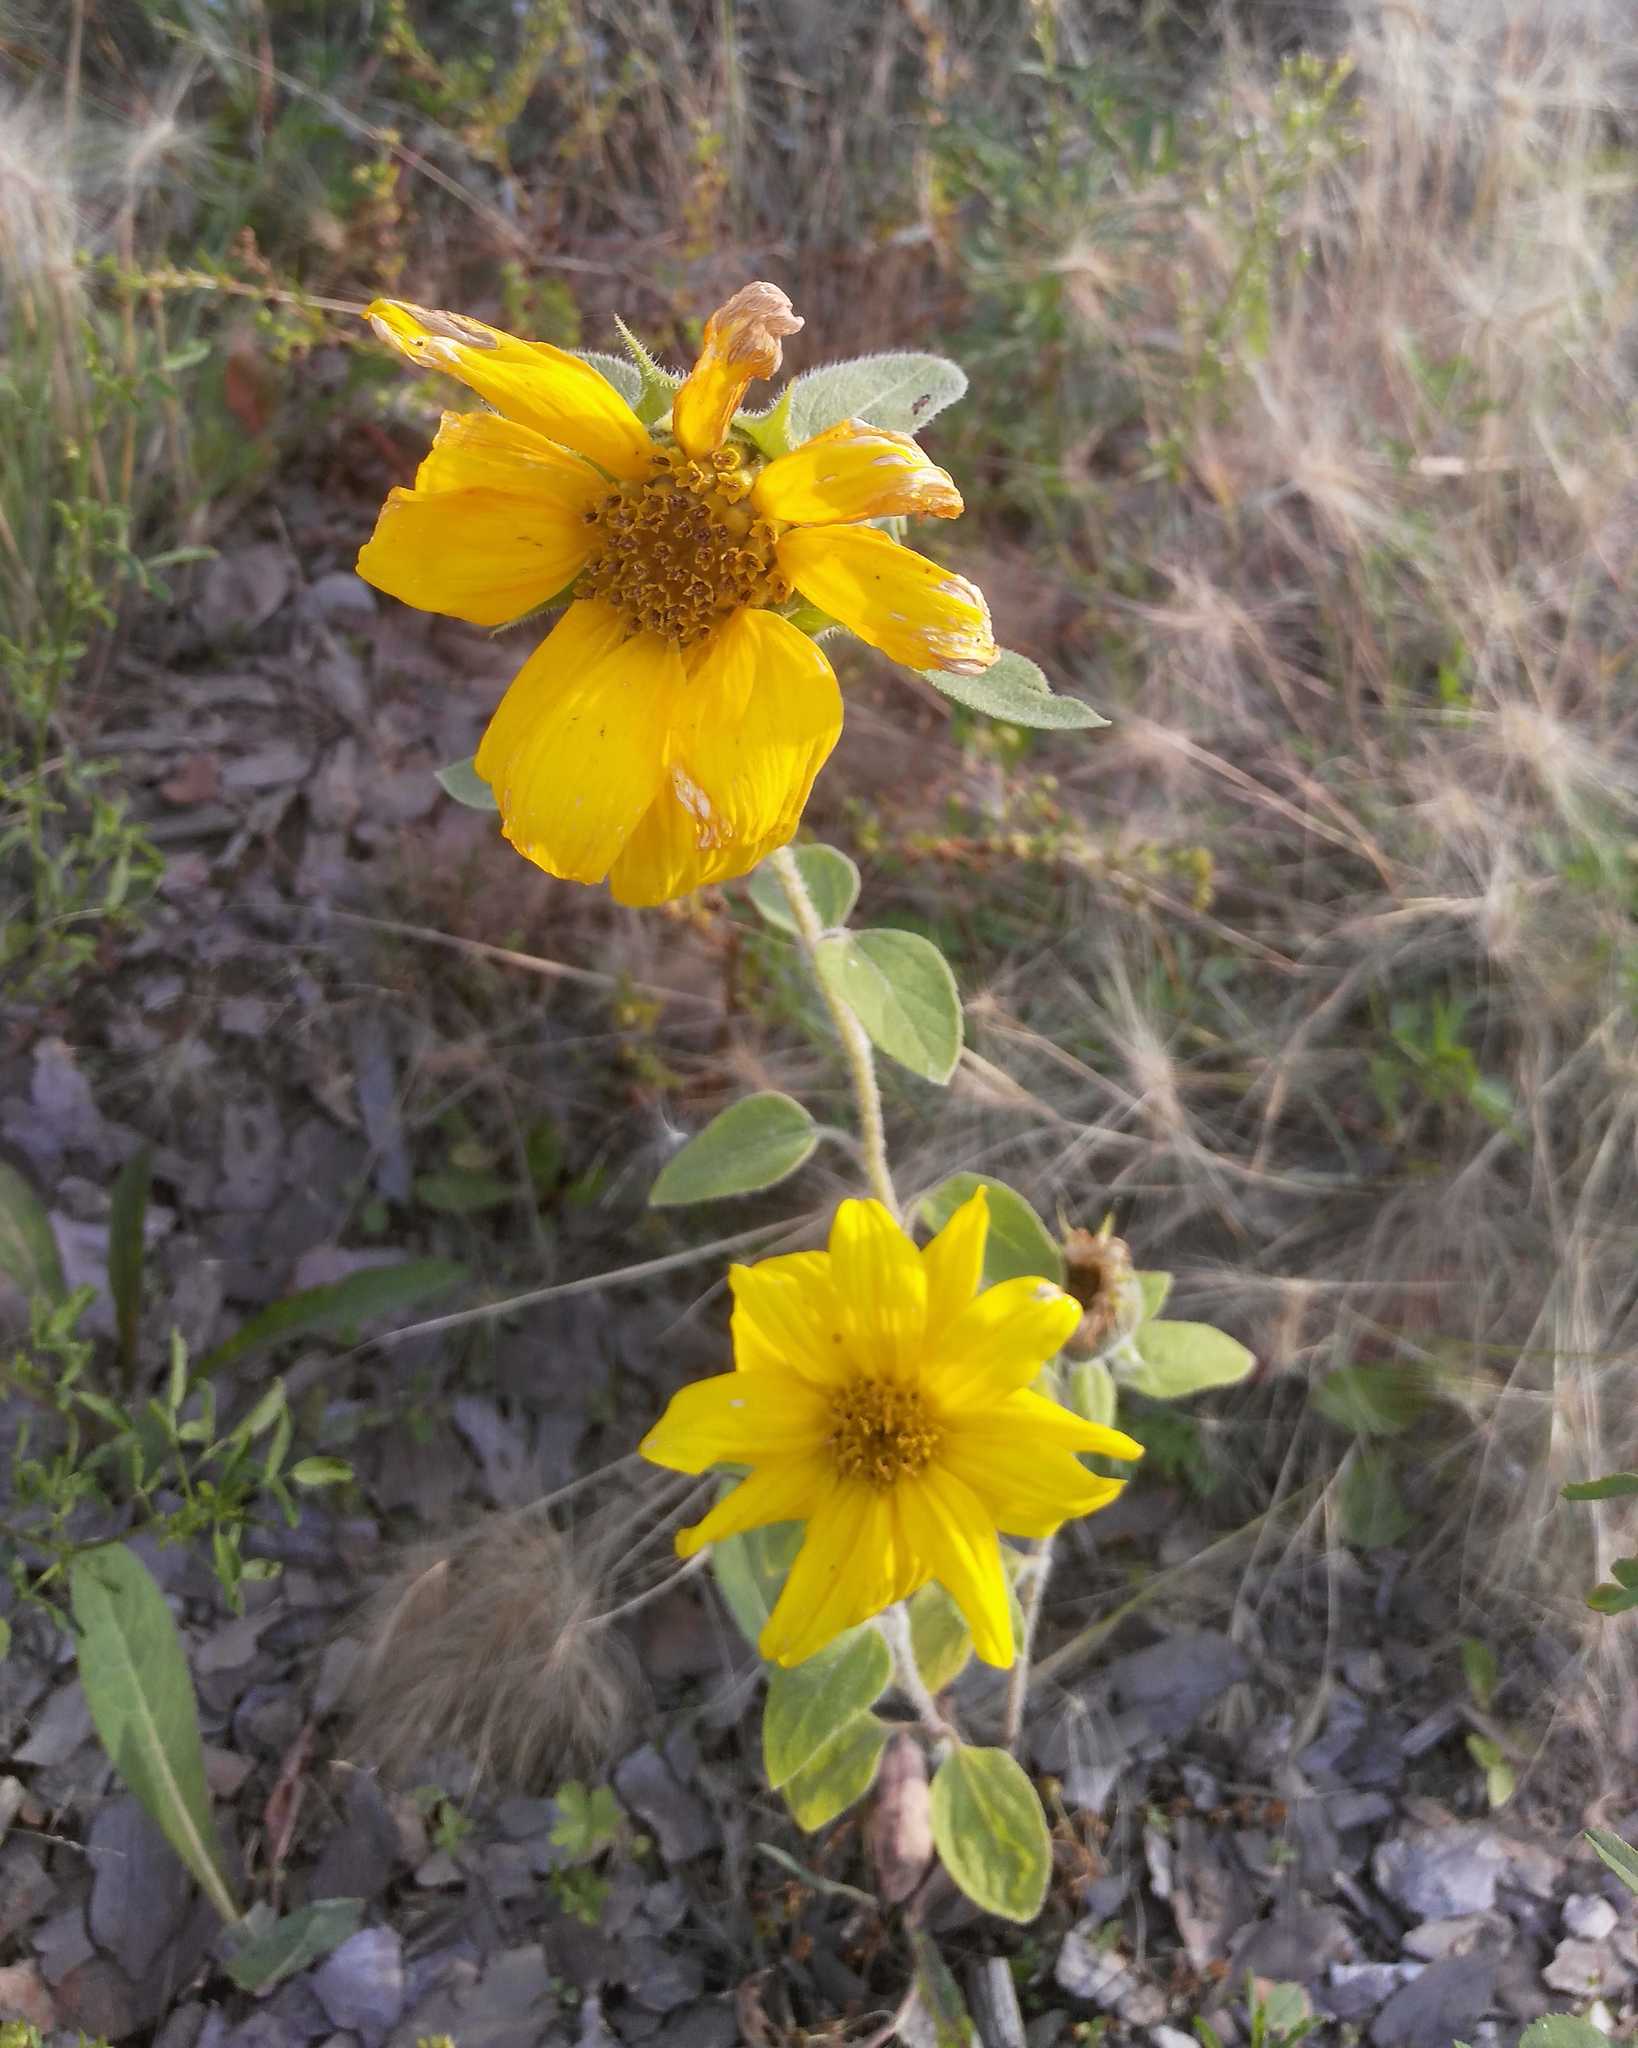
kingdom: Plantae
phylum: Tracheophyta
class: Magnoliopsida
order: Asterales
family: Asteraceae
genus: Helianthus
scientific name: Helianthus annuus
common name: Sunflower
